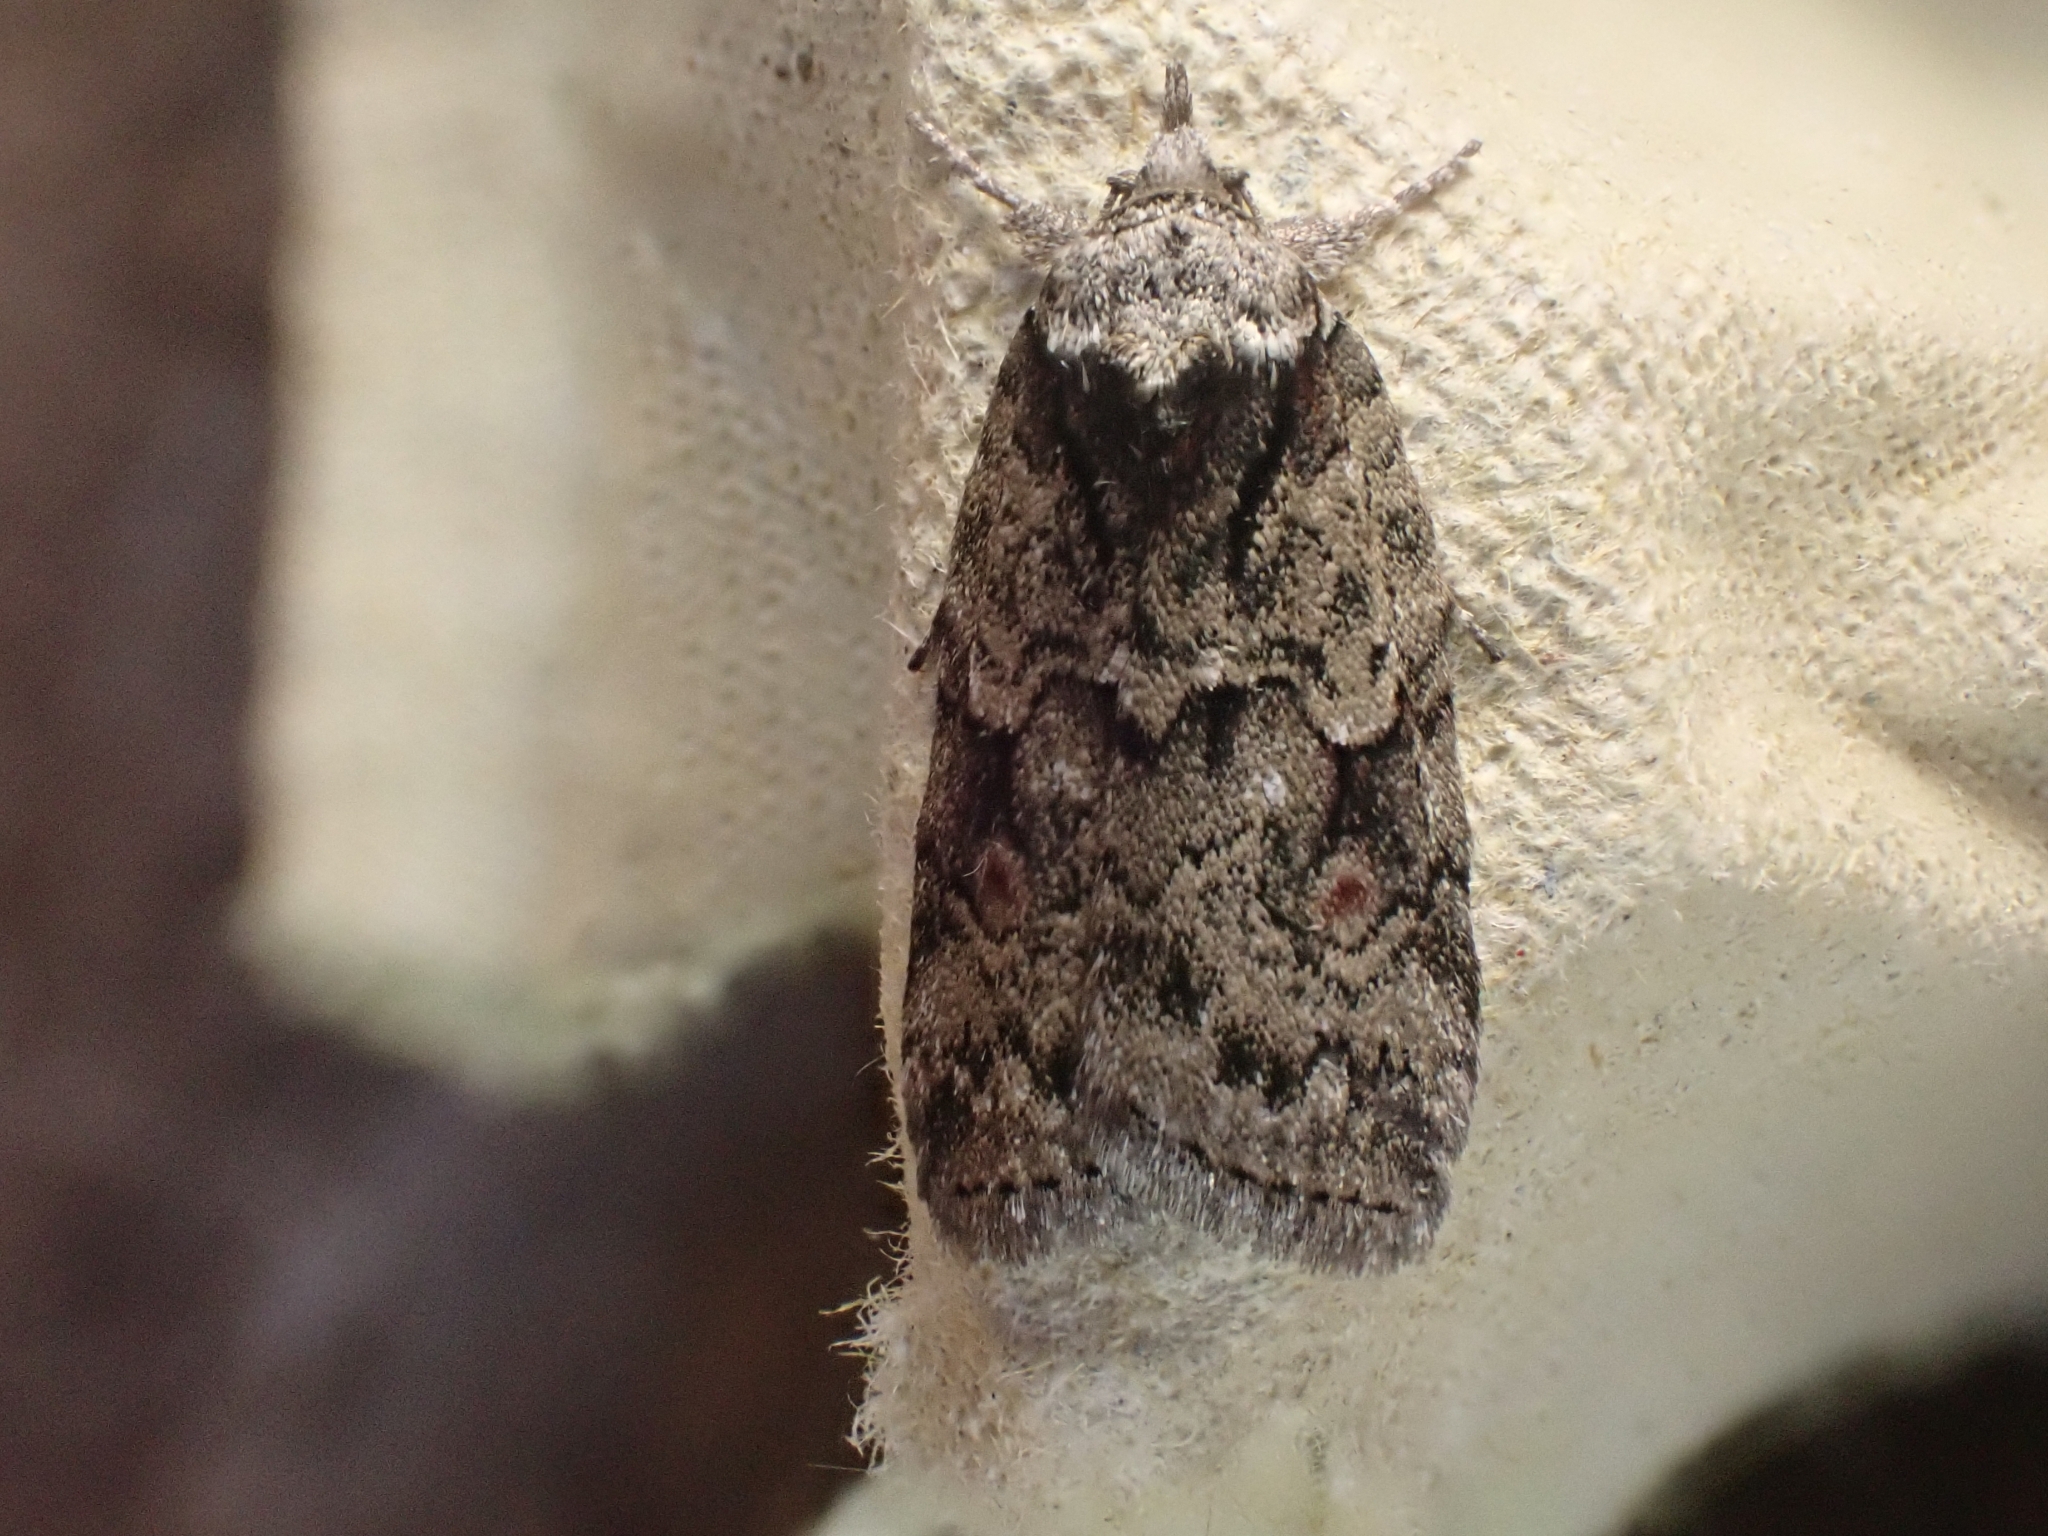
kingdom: Animalia
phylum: Arthropoda
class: Insecta
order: Lepidoptera
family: Nolidae
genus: Nycteola
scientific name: Nycteola degenerana
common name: Swallow nycteoline
